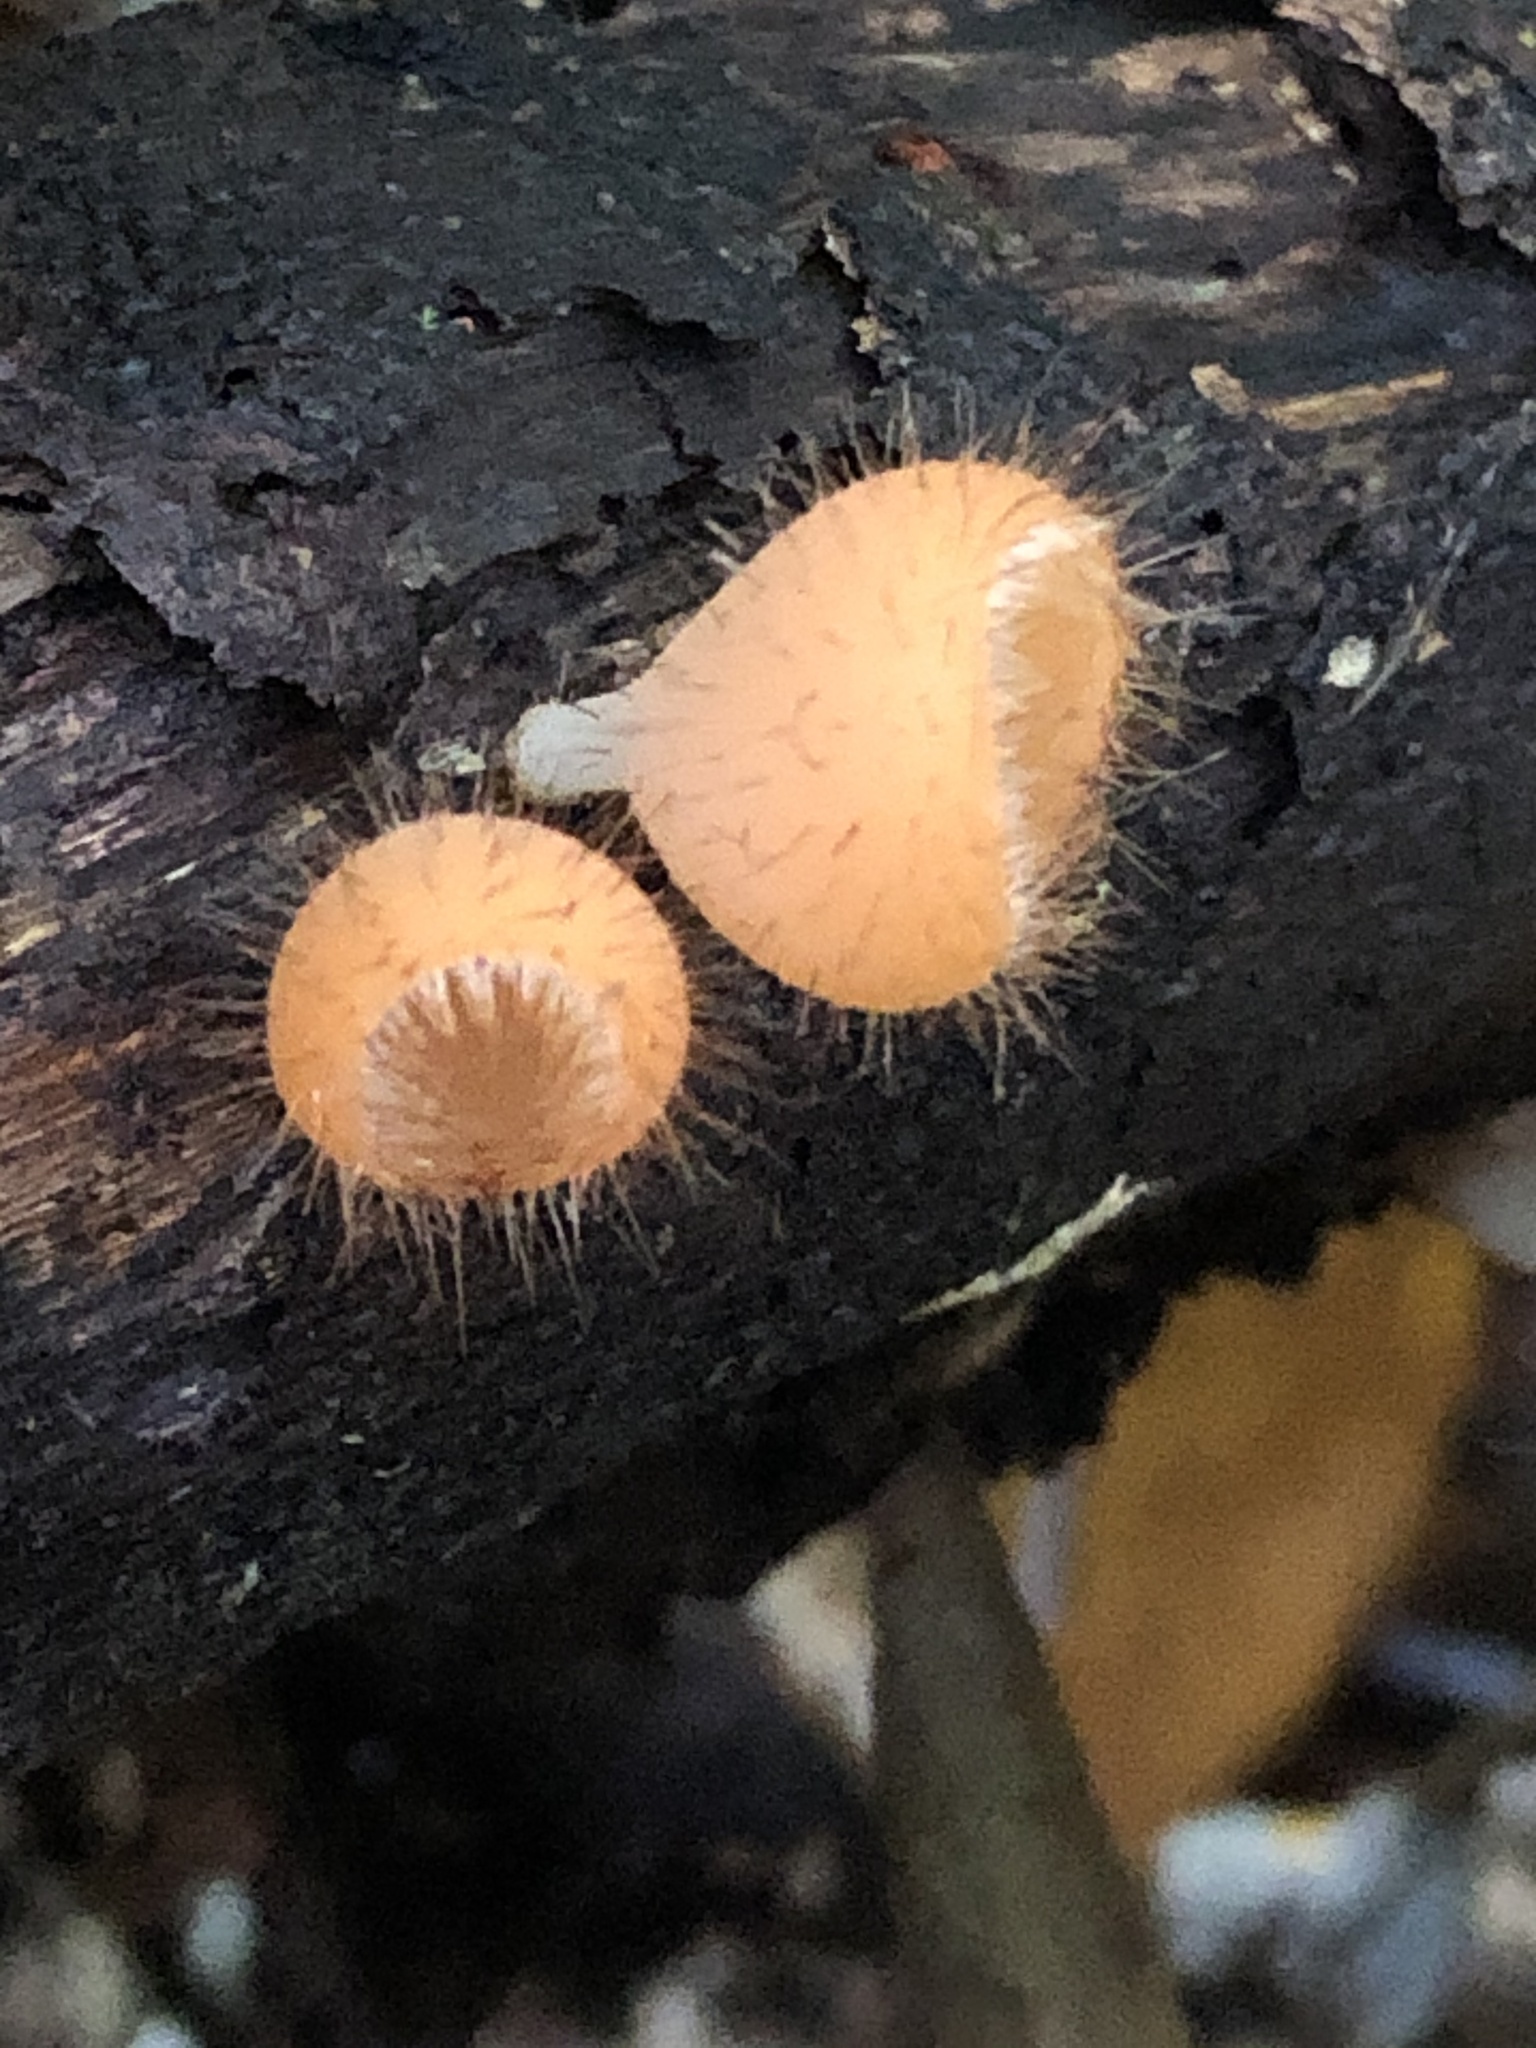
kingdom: Fungi
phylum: Ascomycota
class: Pezizomycetes
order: Pezizales
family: Sarcoscyphaceae
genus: Cookeina
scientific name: Cookeina tricholoma
